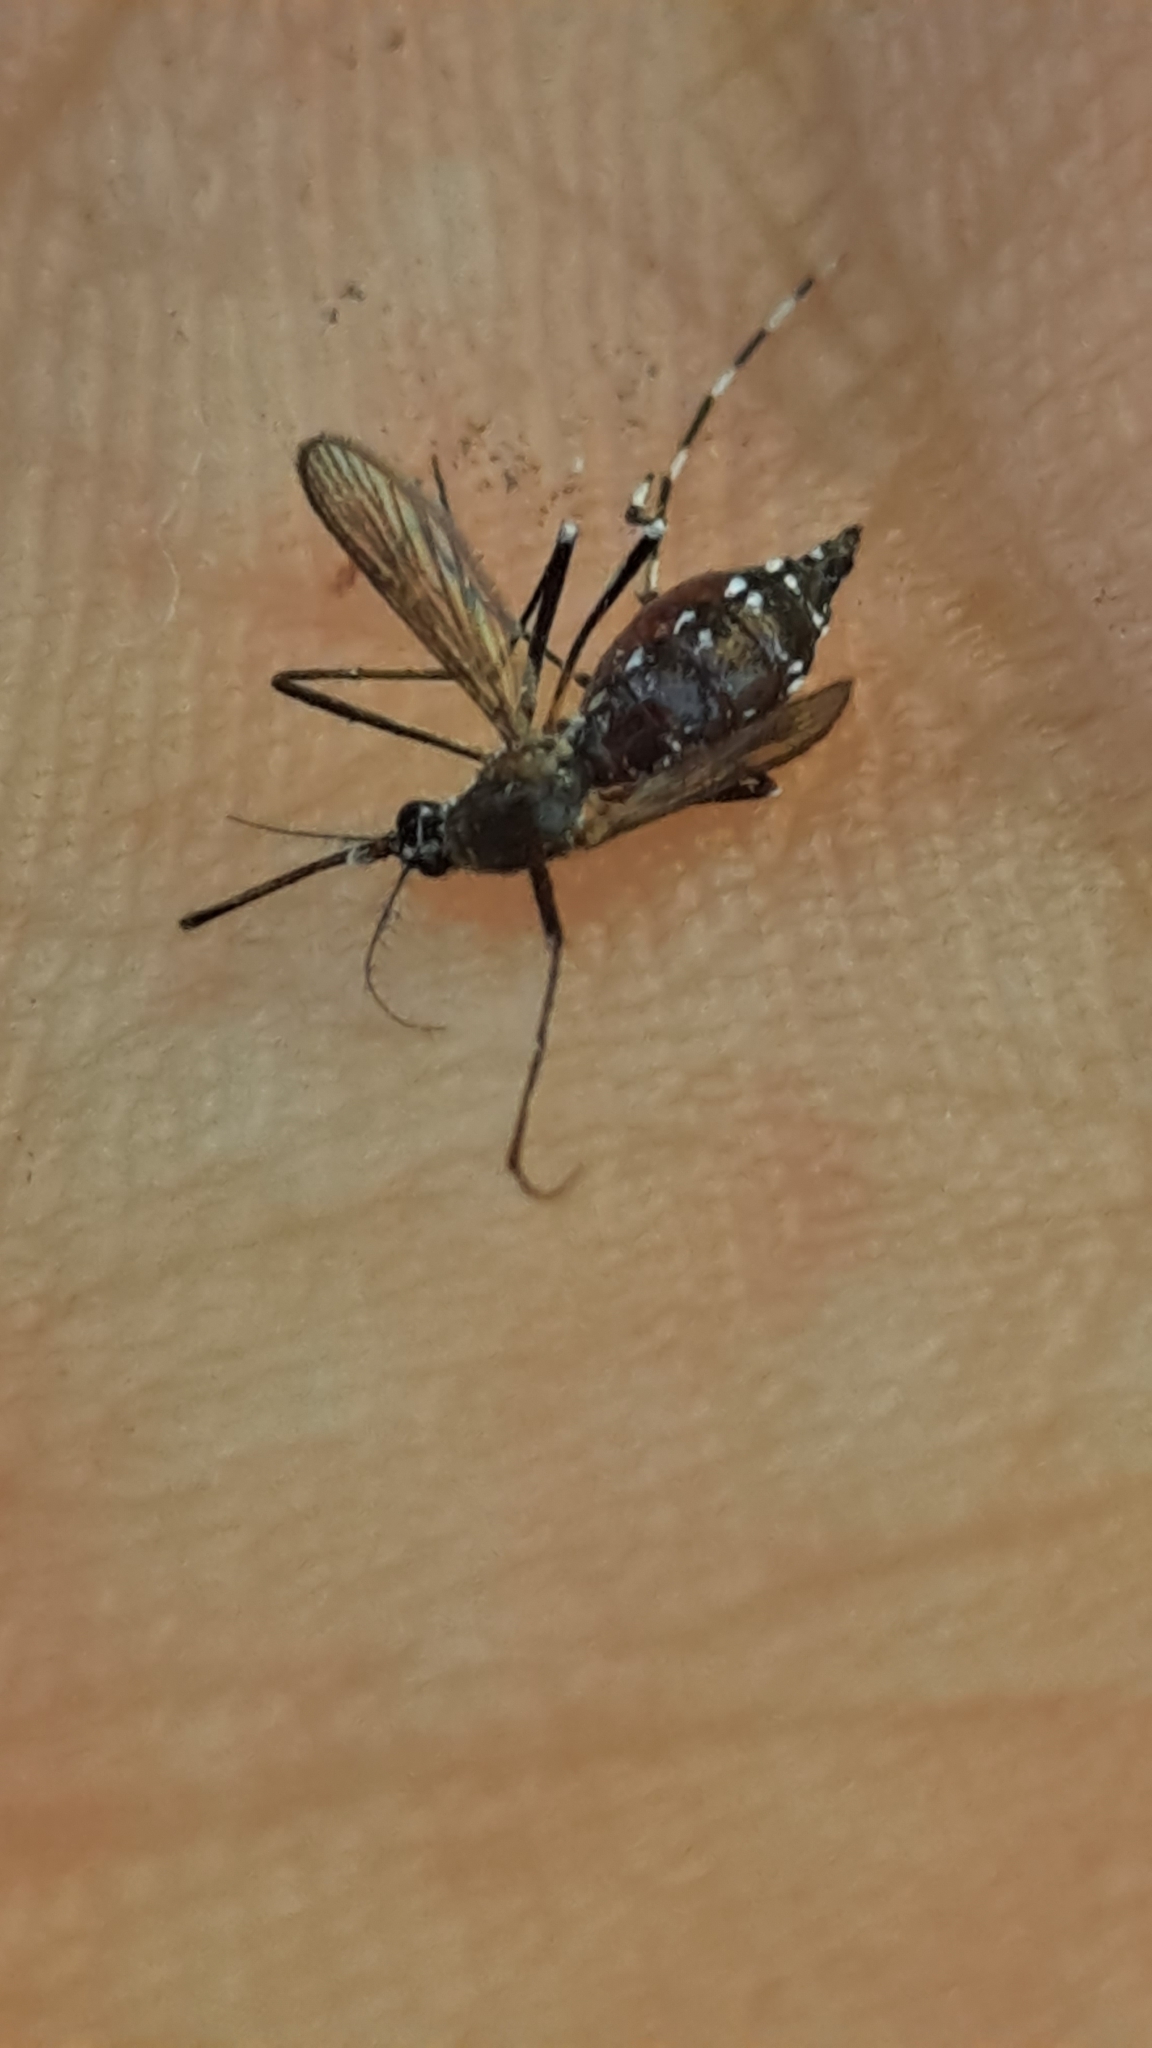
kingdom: Animalia
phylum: Arthropoda
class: Insecta
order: Diptera
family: Culicidae
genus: Aedes
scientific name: Aedes albopictus
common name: Tiger mosquito
